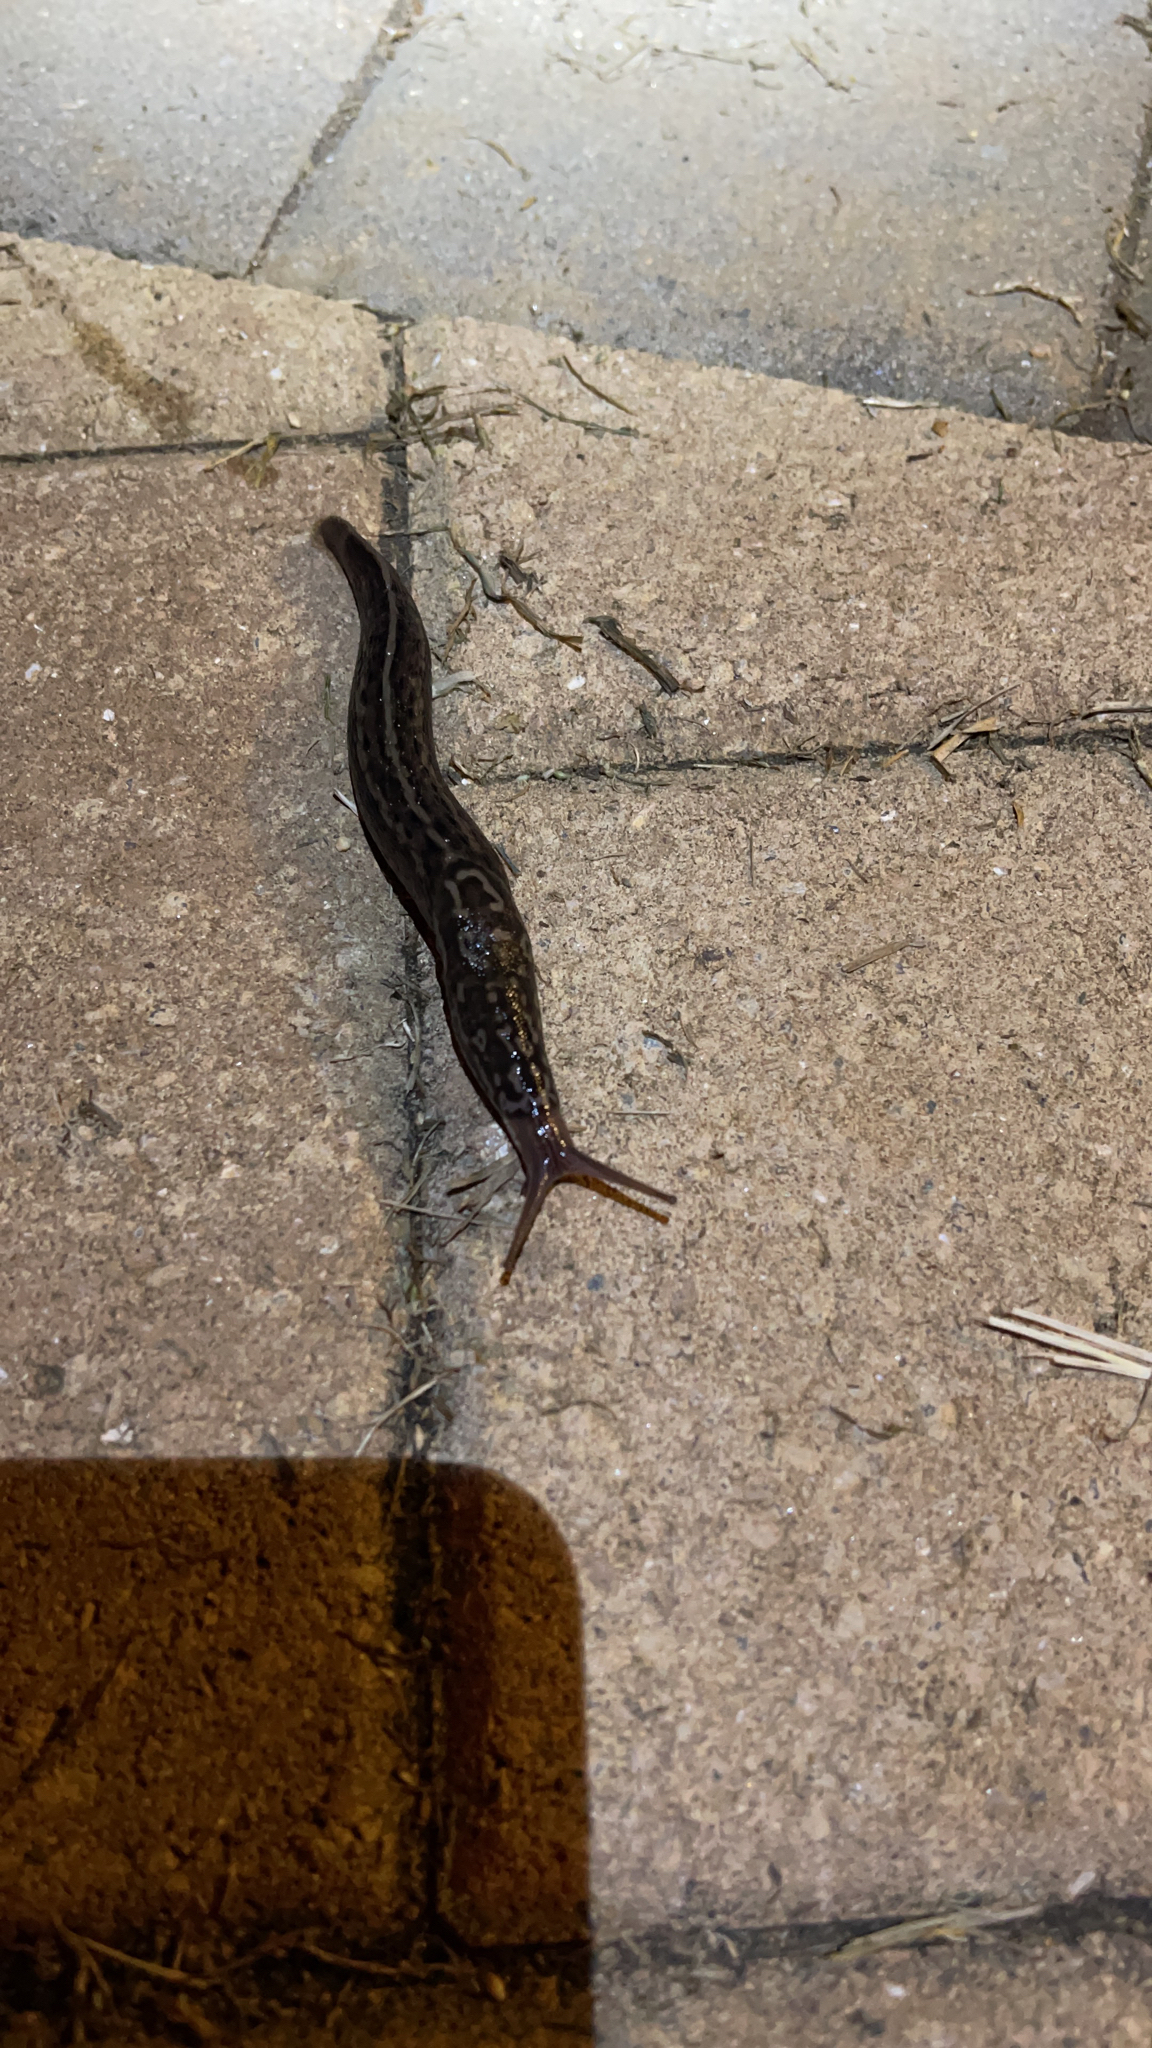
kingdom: Animalia
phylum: Mollusca
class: Gastropoda
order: Stylommatophora
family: Limacidae
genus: Limax
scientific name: Limax maximus
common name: Great grey slug
